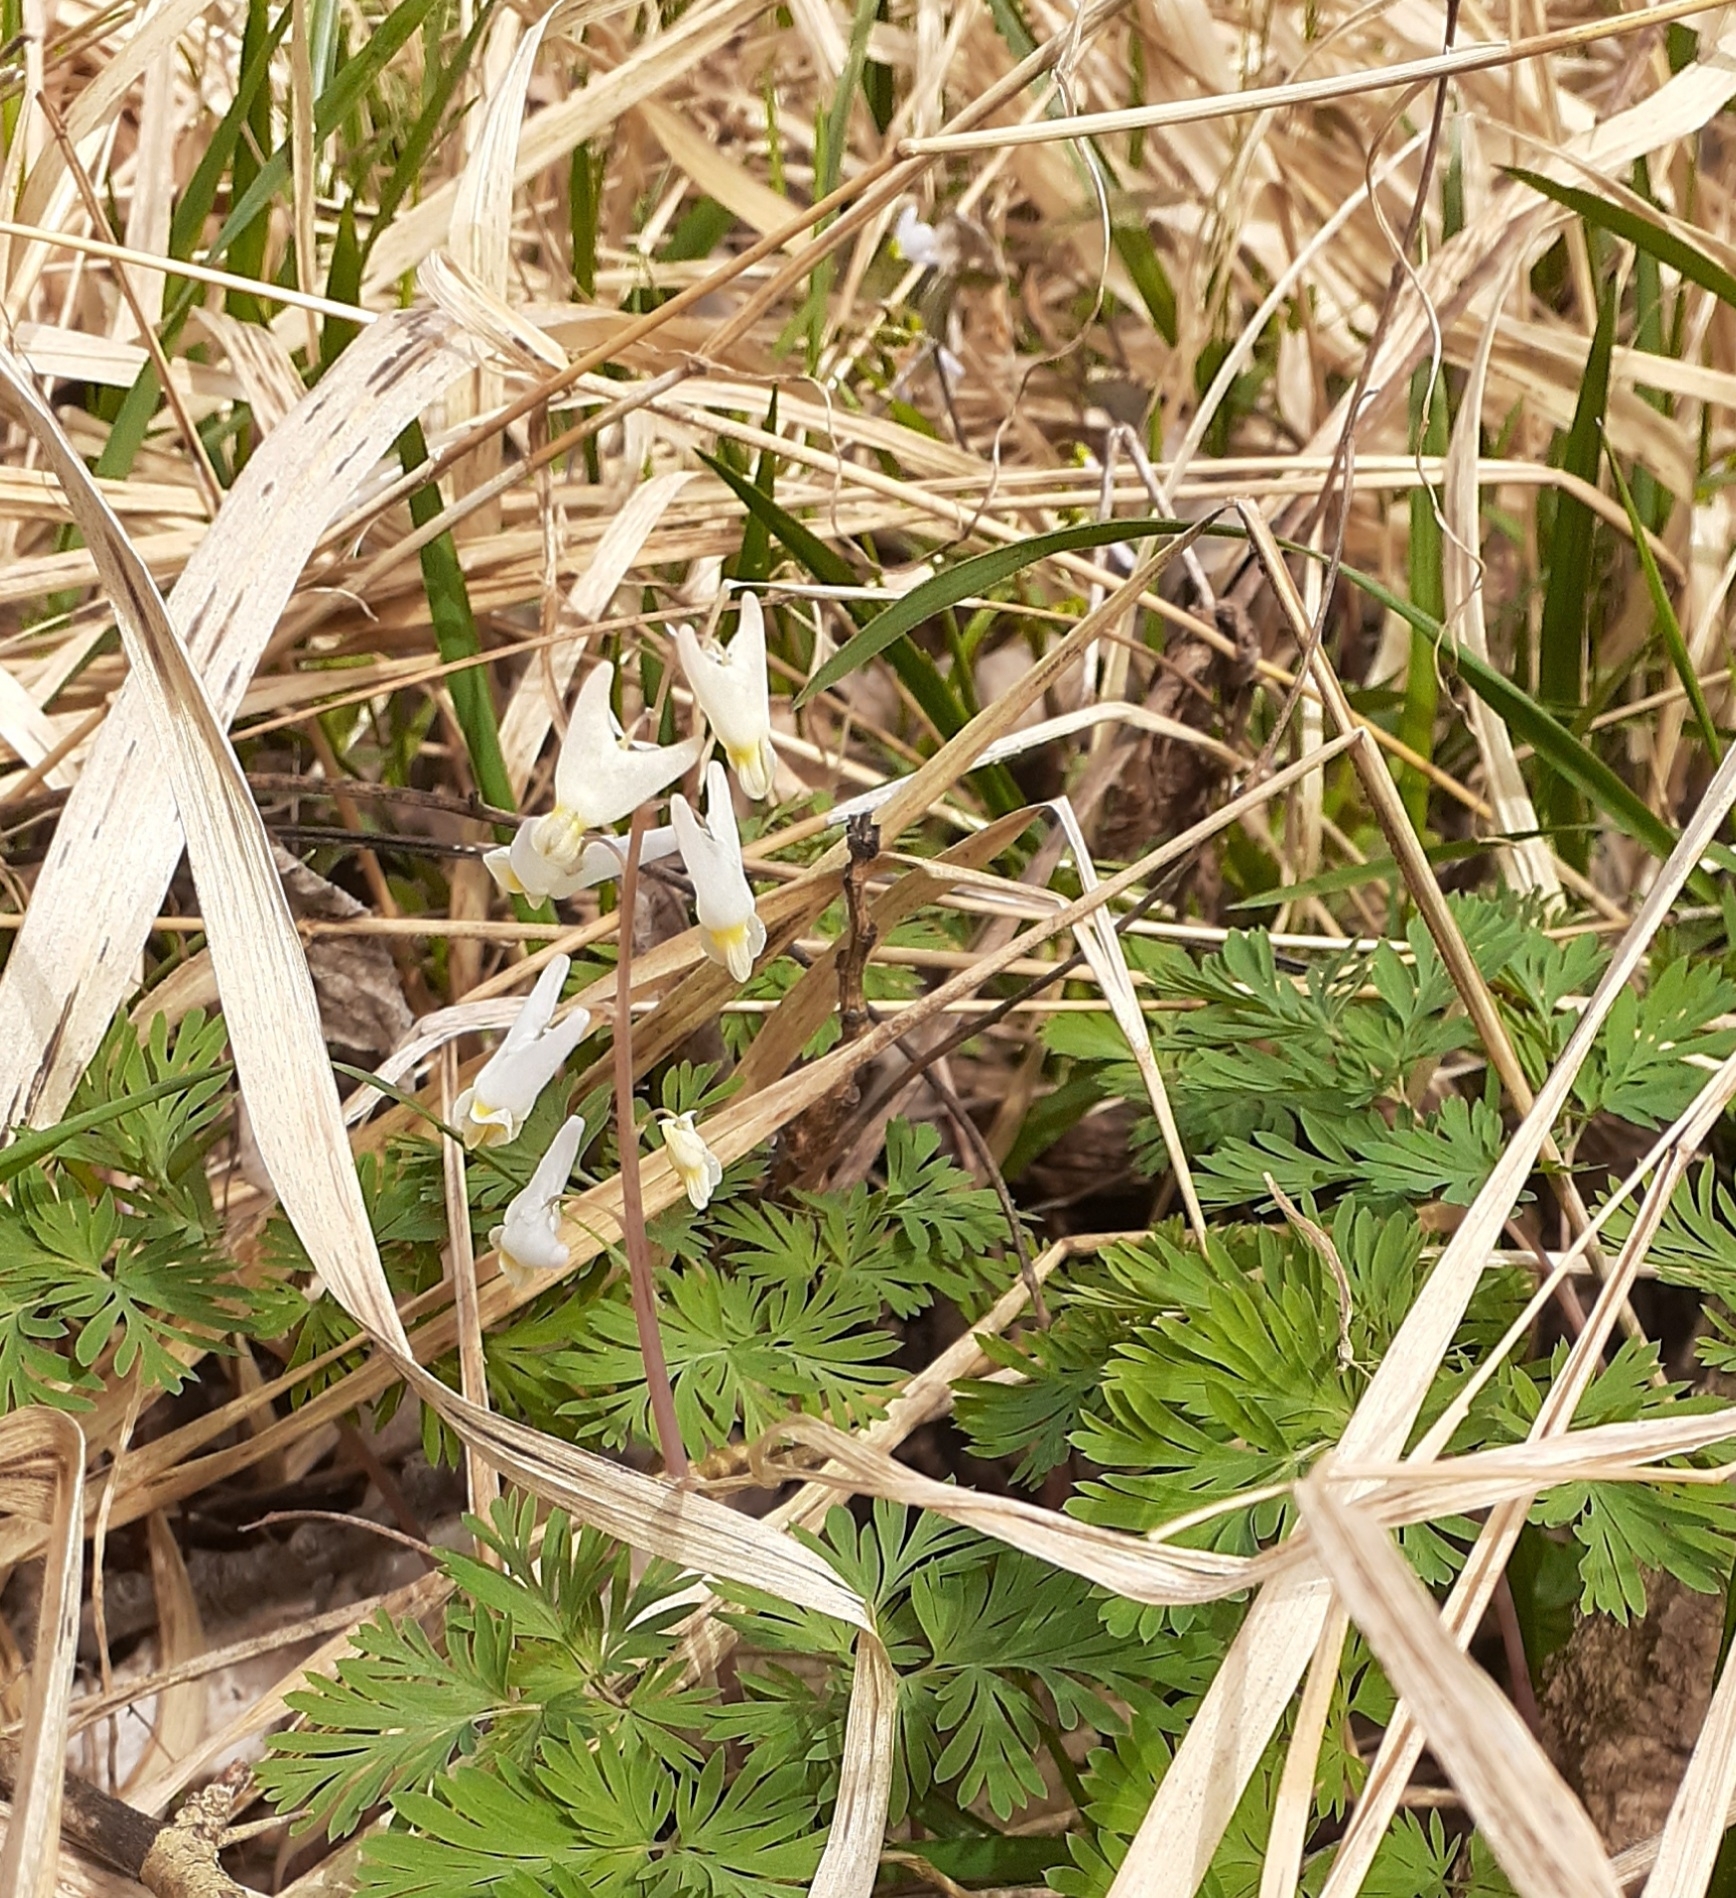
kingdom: Plantae
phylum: Tracheophyta
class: Magnoliopsida
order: Ranunculales
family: Papaveraceae
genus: Dicentra
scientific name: Dicentra cucullaria
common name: Dutchman's breeches
